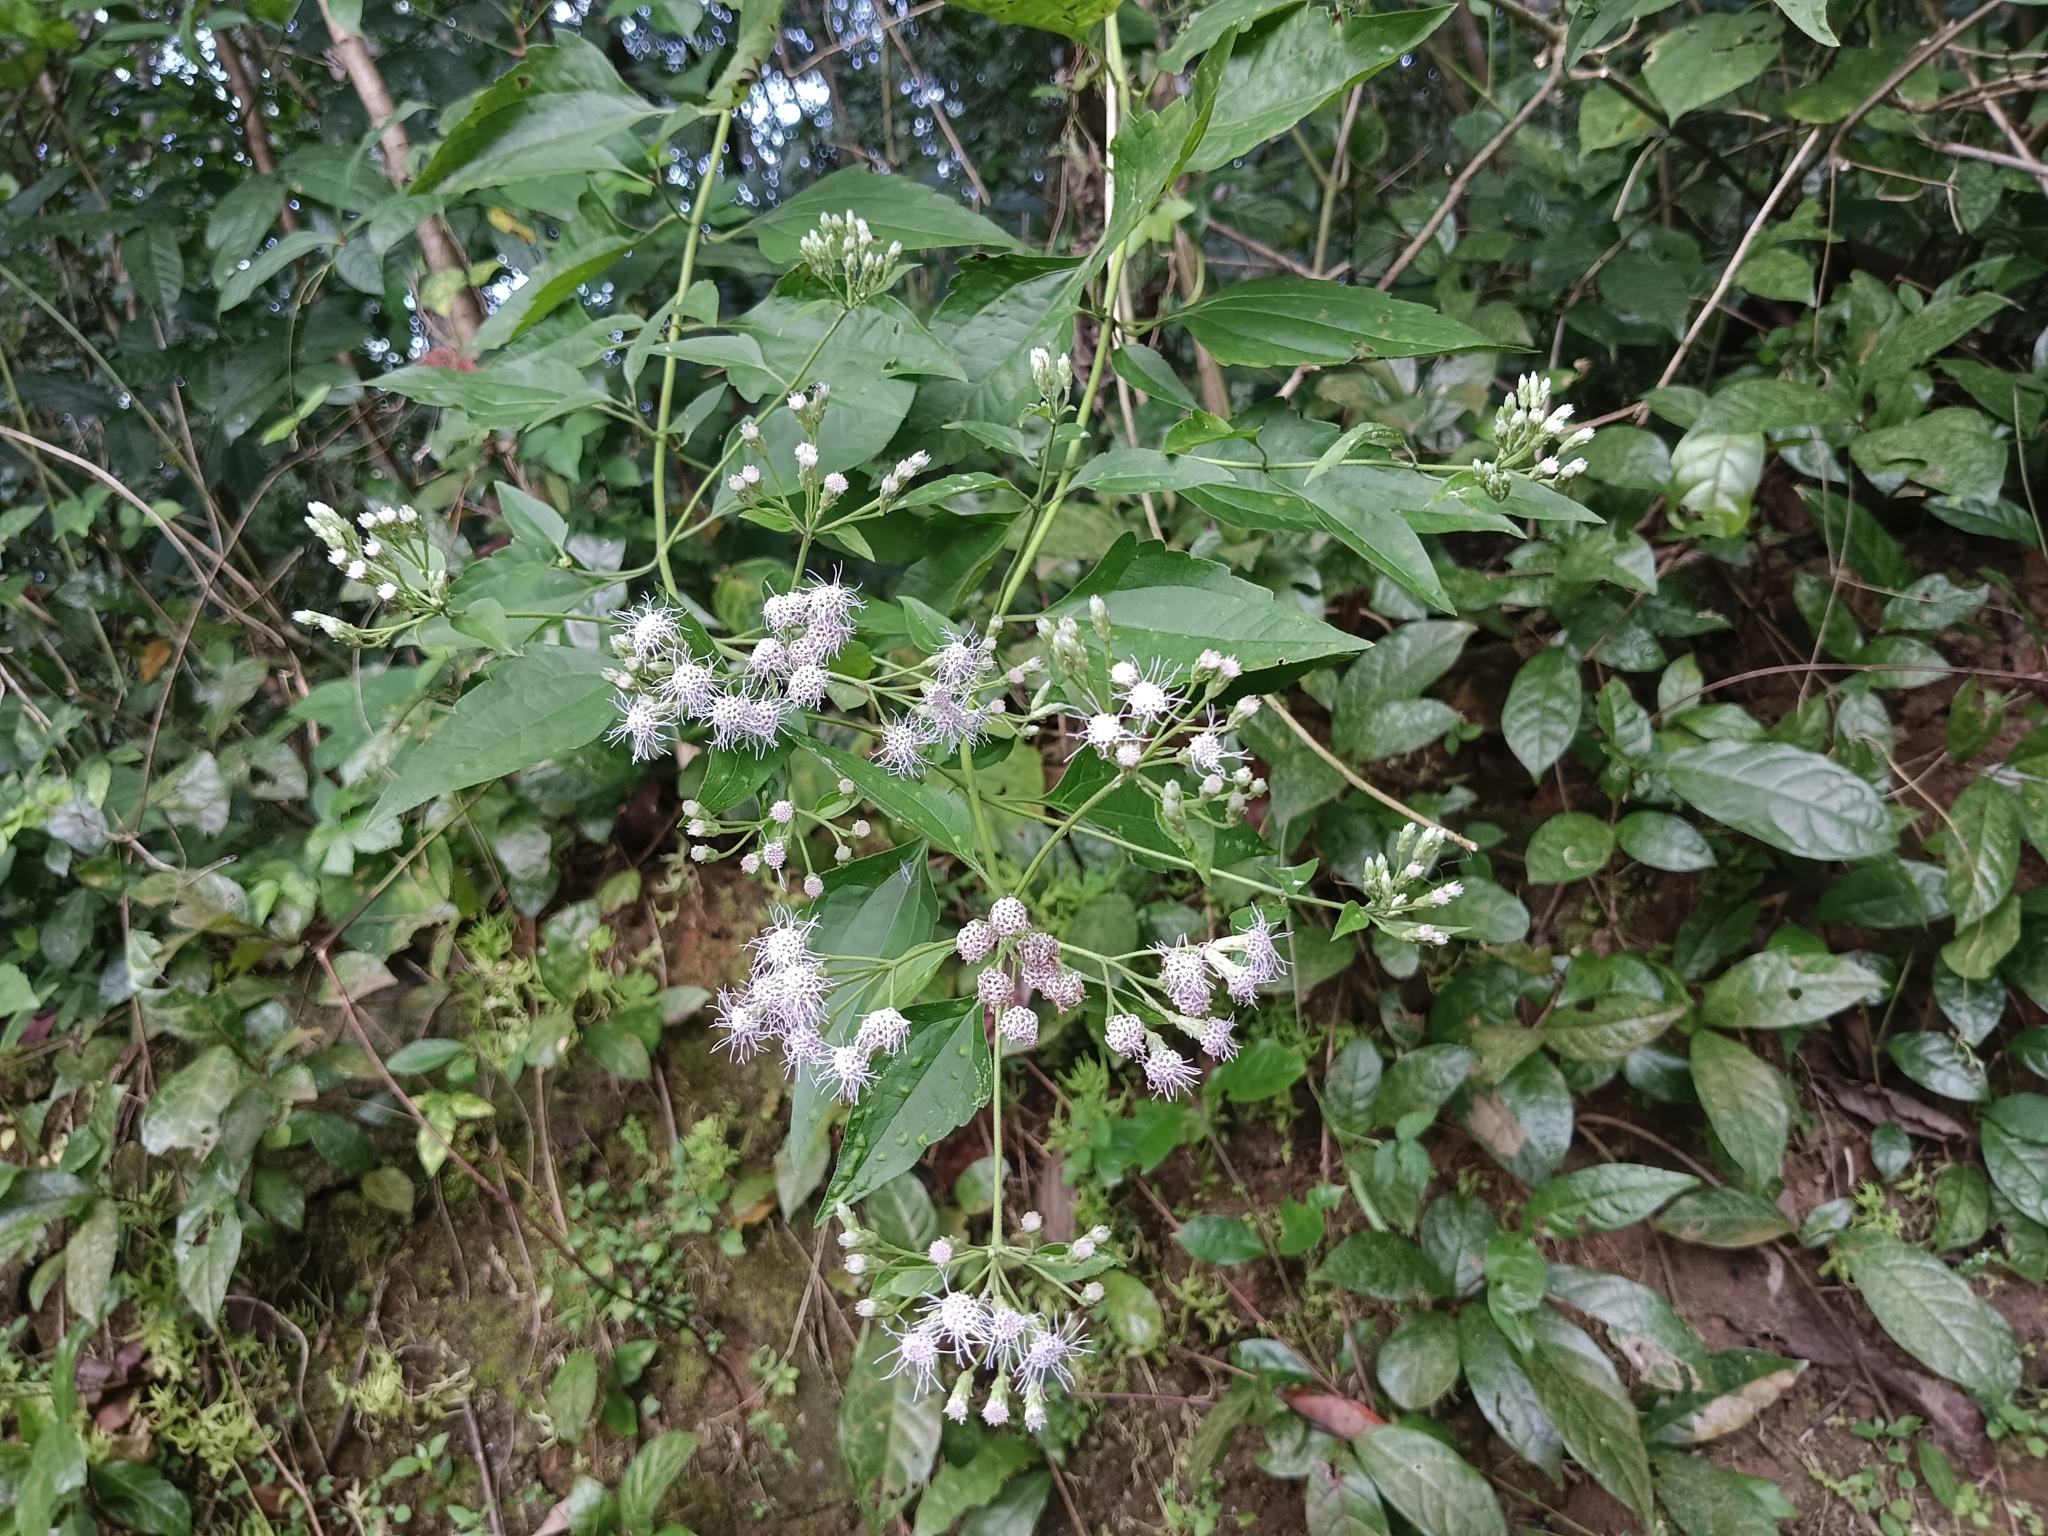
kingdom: Plantae
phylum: Tracheophyta
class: Magnoliopsida
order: Asterales
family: Asteraceae
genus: Chromolaena
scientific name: Chromolaena odorata
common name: Siamweed
